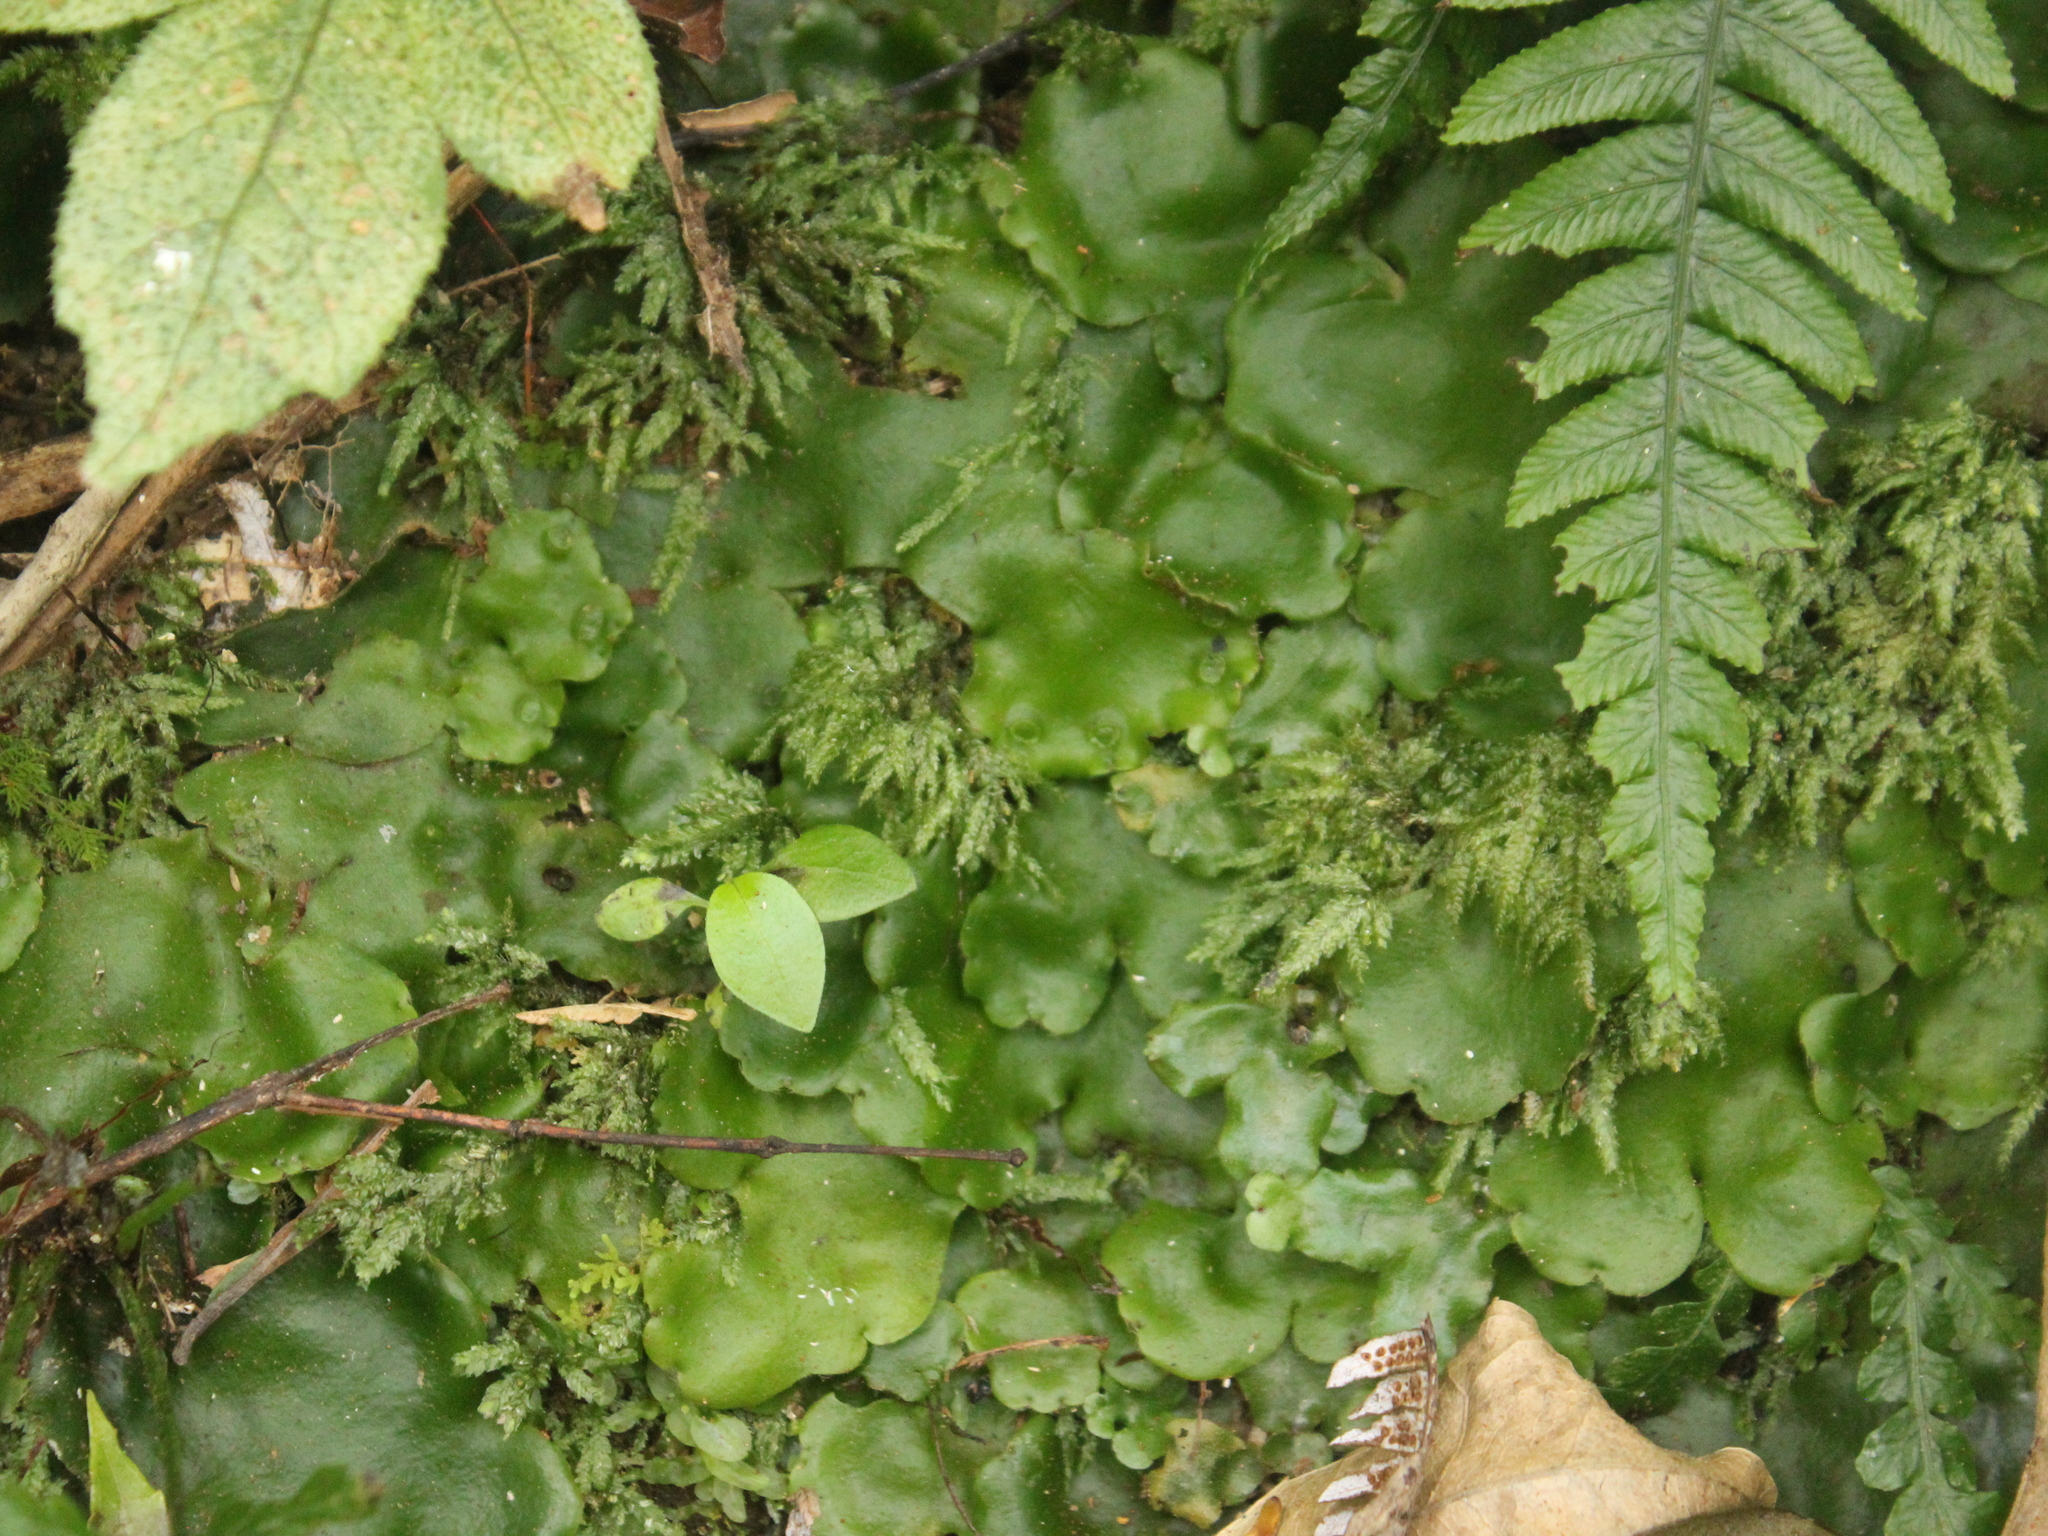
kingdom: Plantae
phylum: Marchantiophyta
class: Marchantiopsida
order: Marchantiales
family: Monocleaceae
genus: Monoclea
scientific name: Monoclea forsteri
